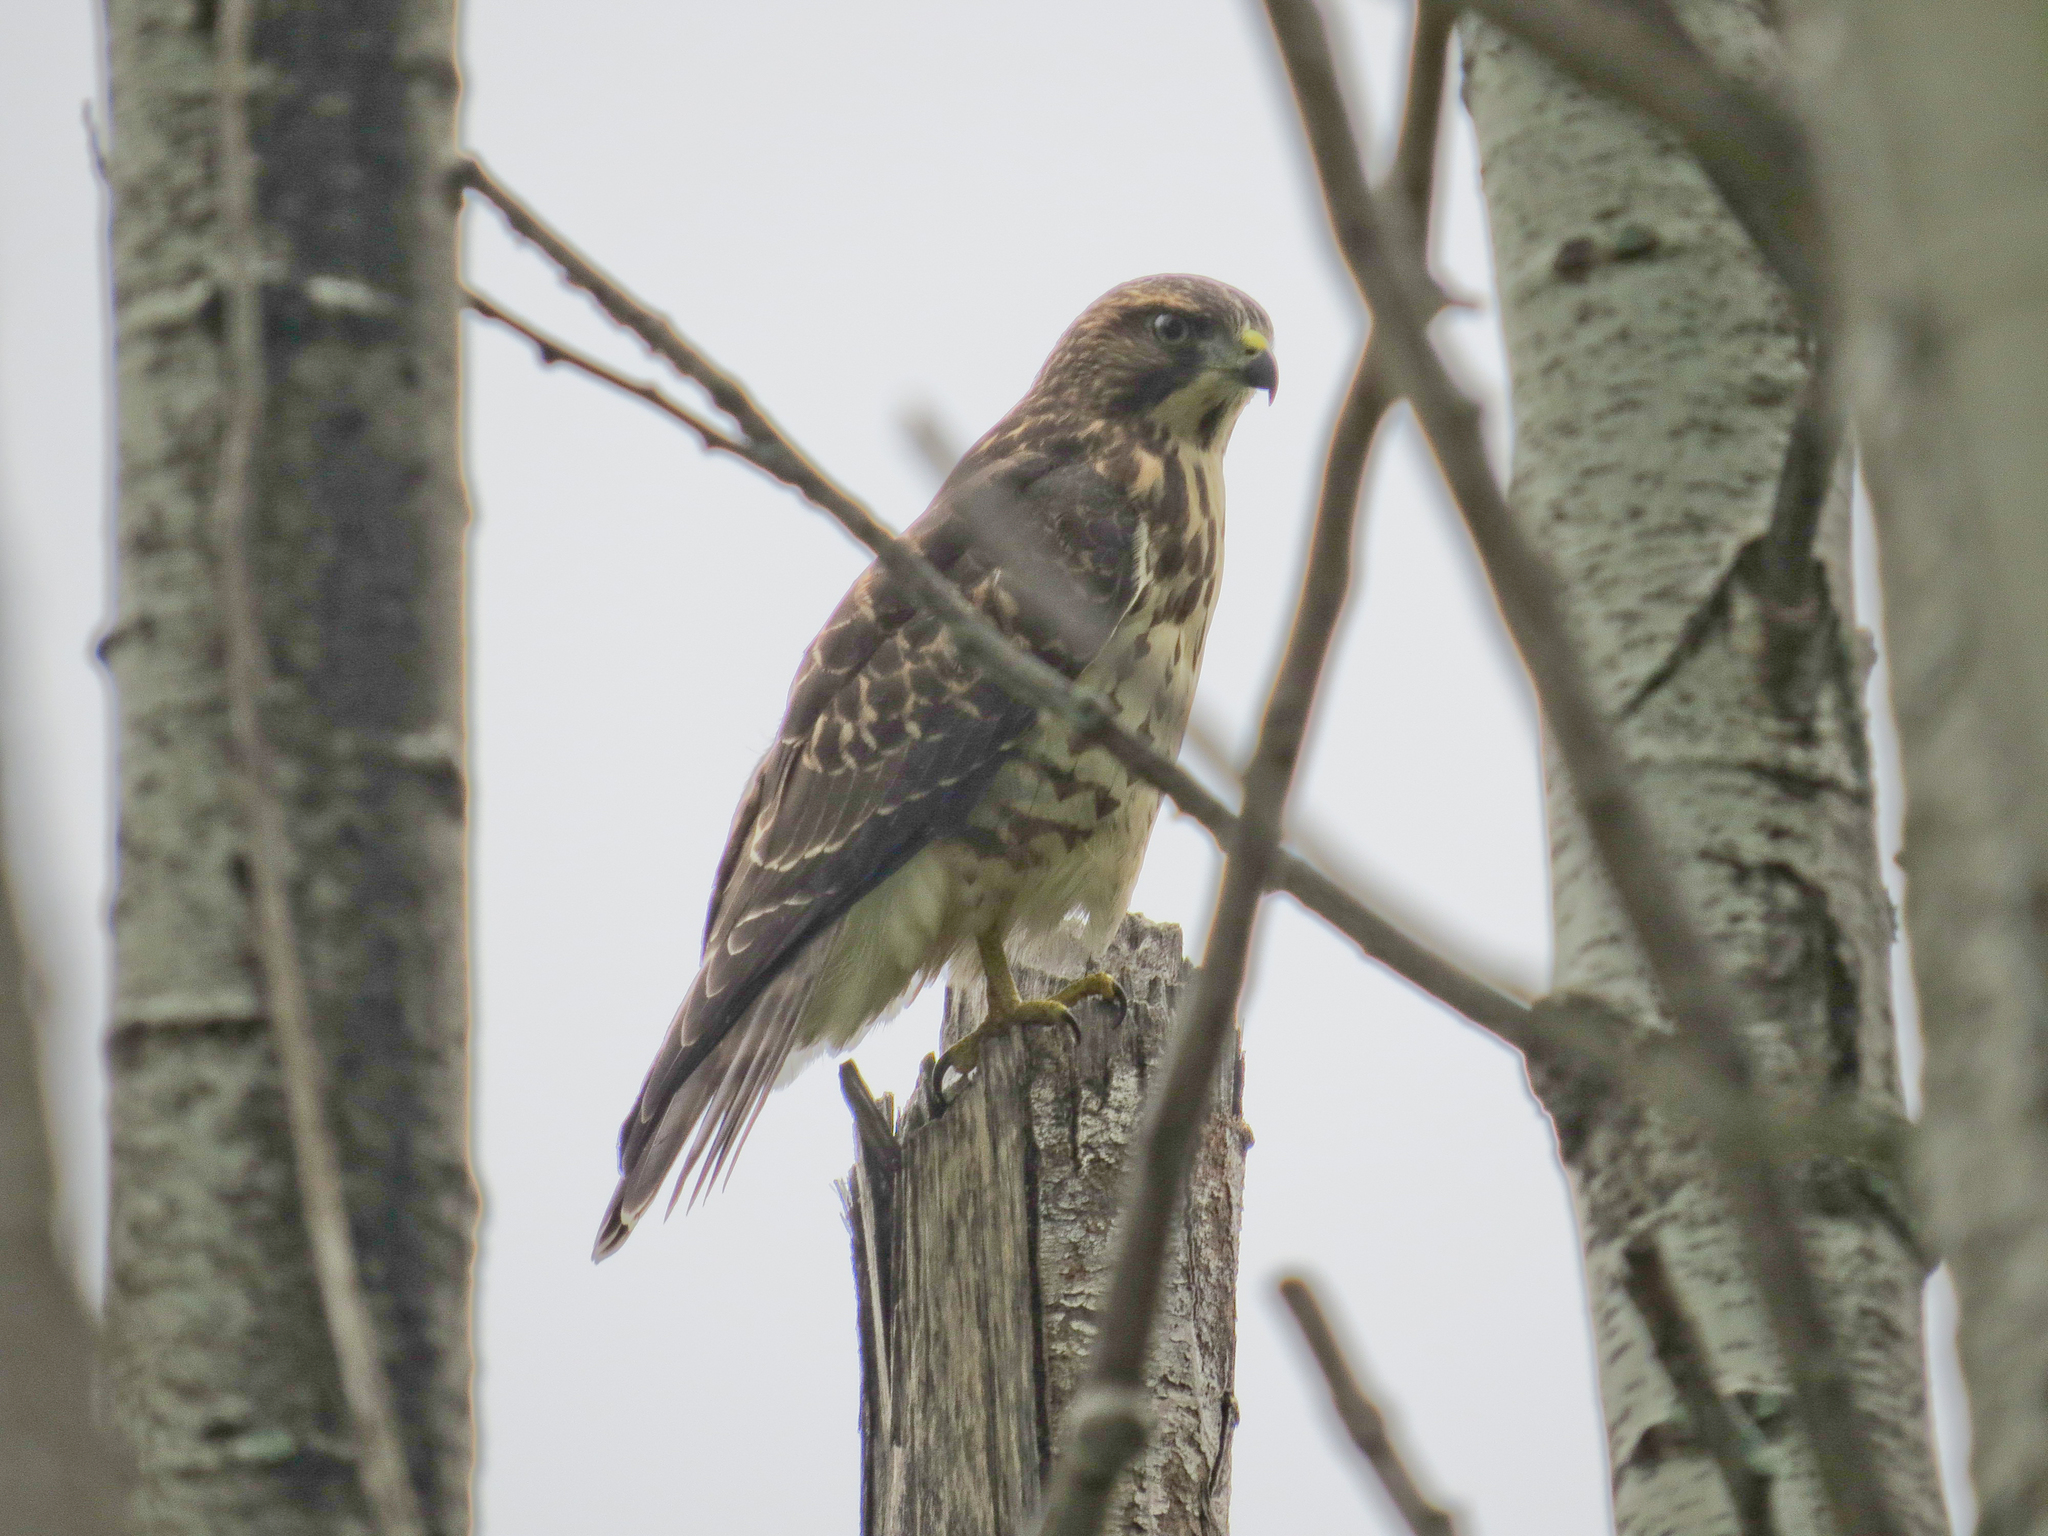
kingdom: Animalia
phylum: Chordata
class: Aves
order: Accipitriformes
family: Accipitridae
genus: Buteo
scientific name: Buteo platypterus
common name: Broad-winged hawk
